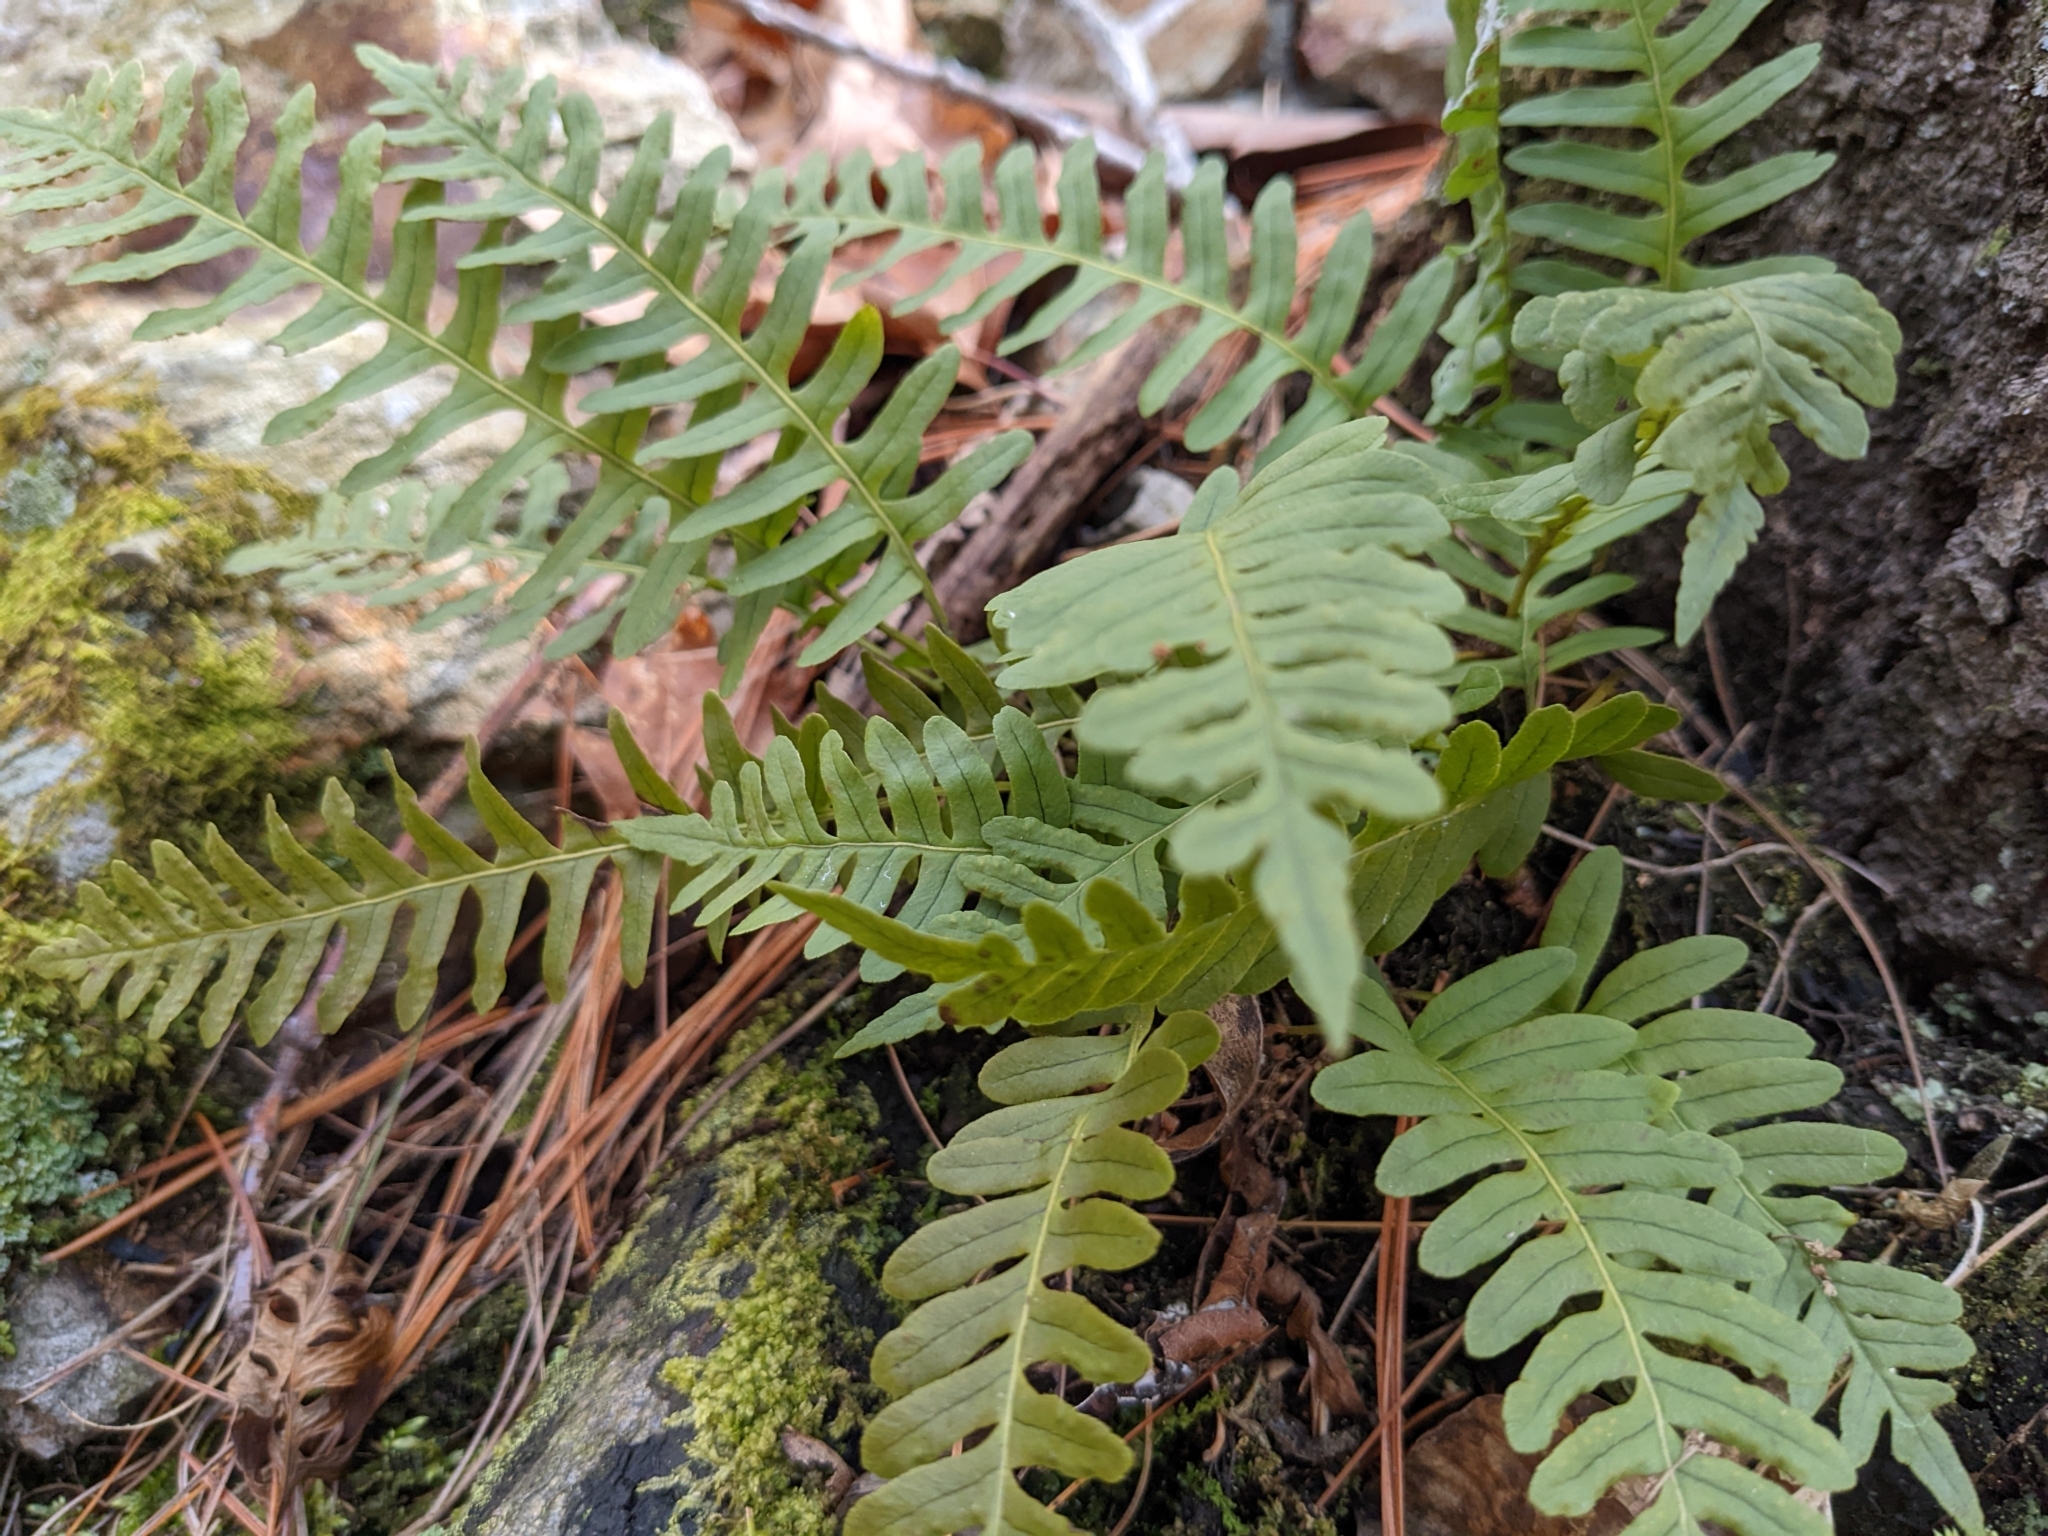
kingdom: Plantae
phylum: Tracheophyta
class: Polypodiopsida
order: Polypodiales
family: Polypodiaceae
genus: Polypodium
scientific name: Polypodium virginianum
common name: American wall fern
